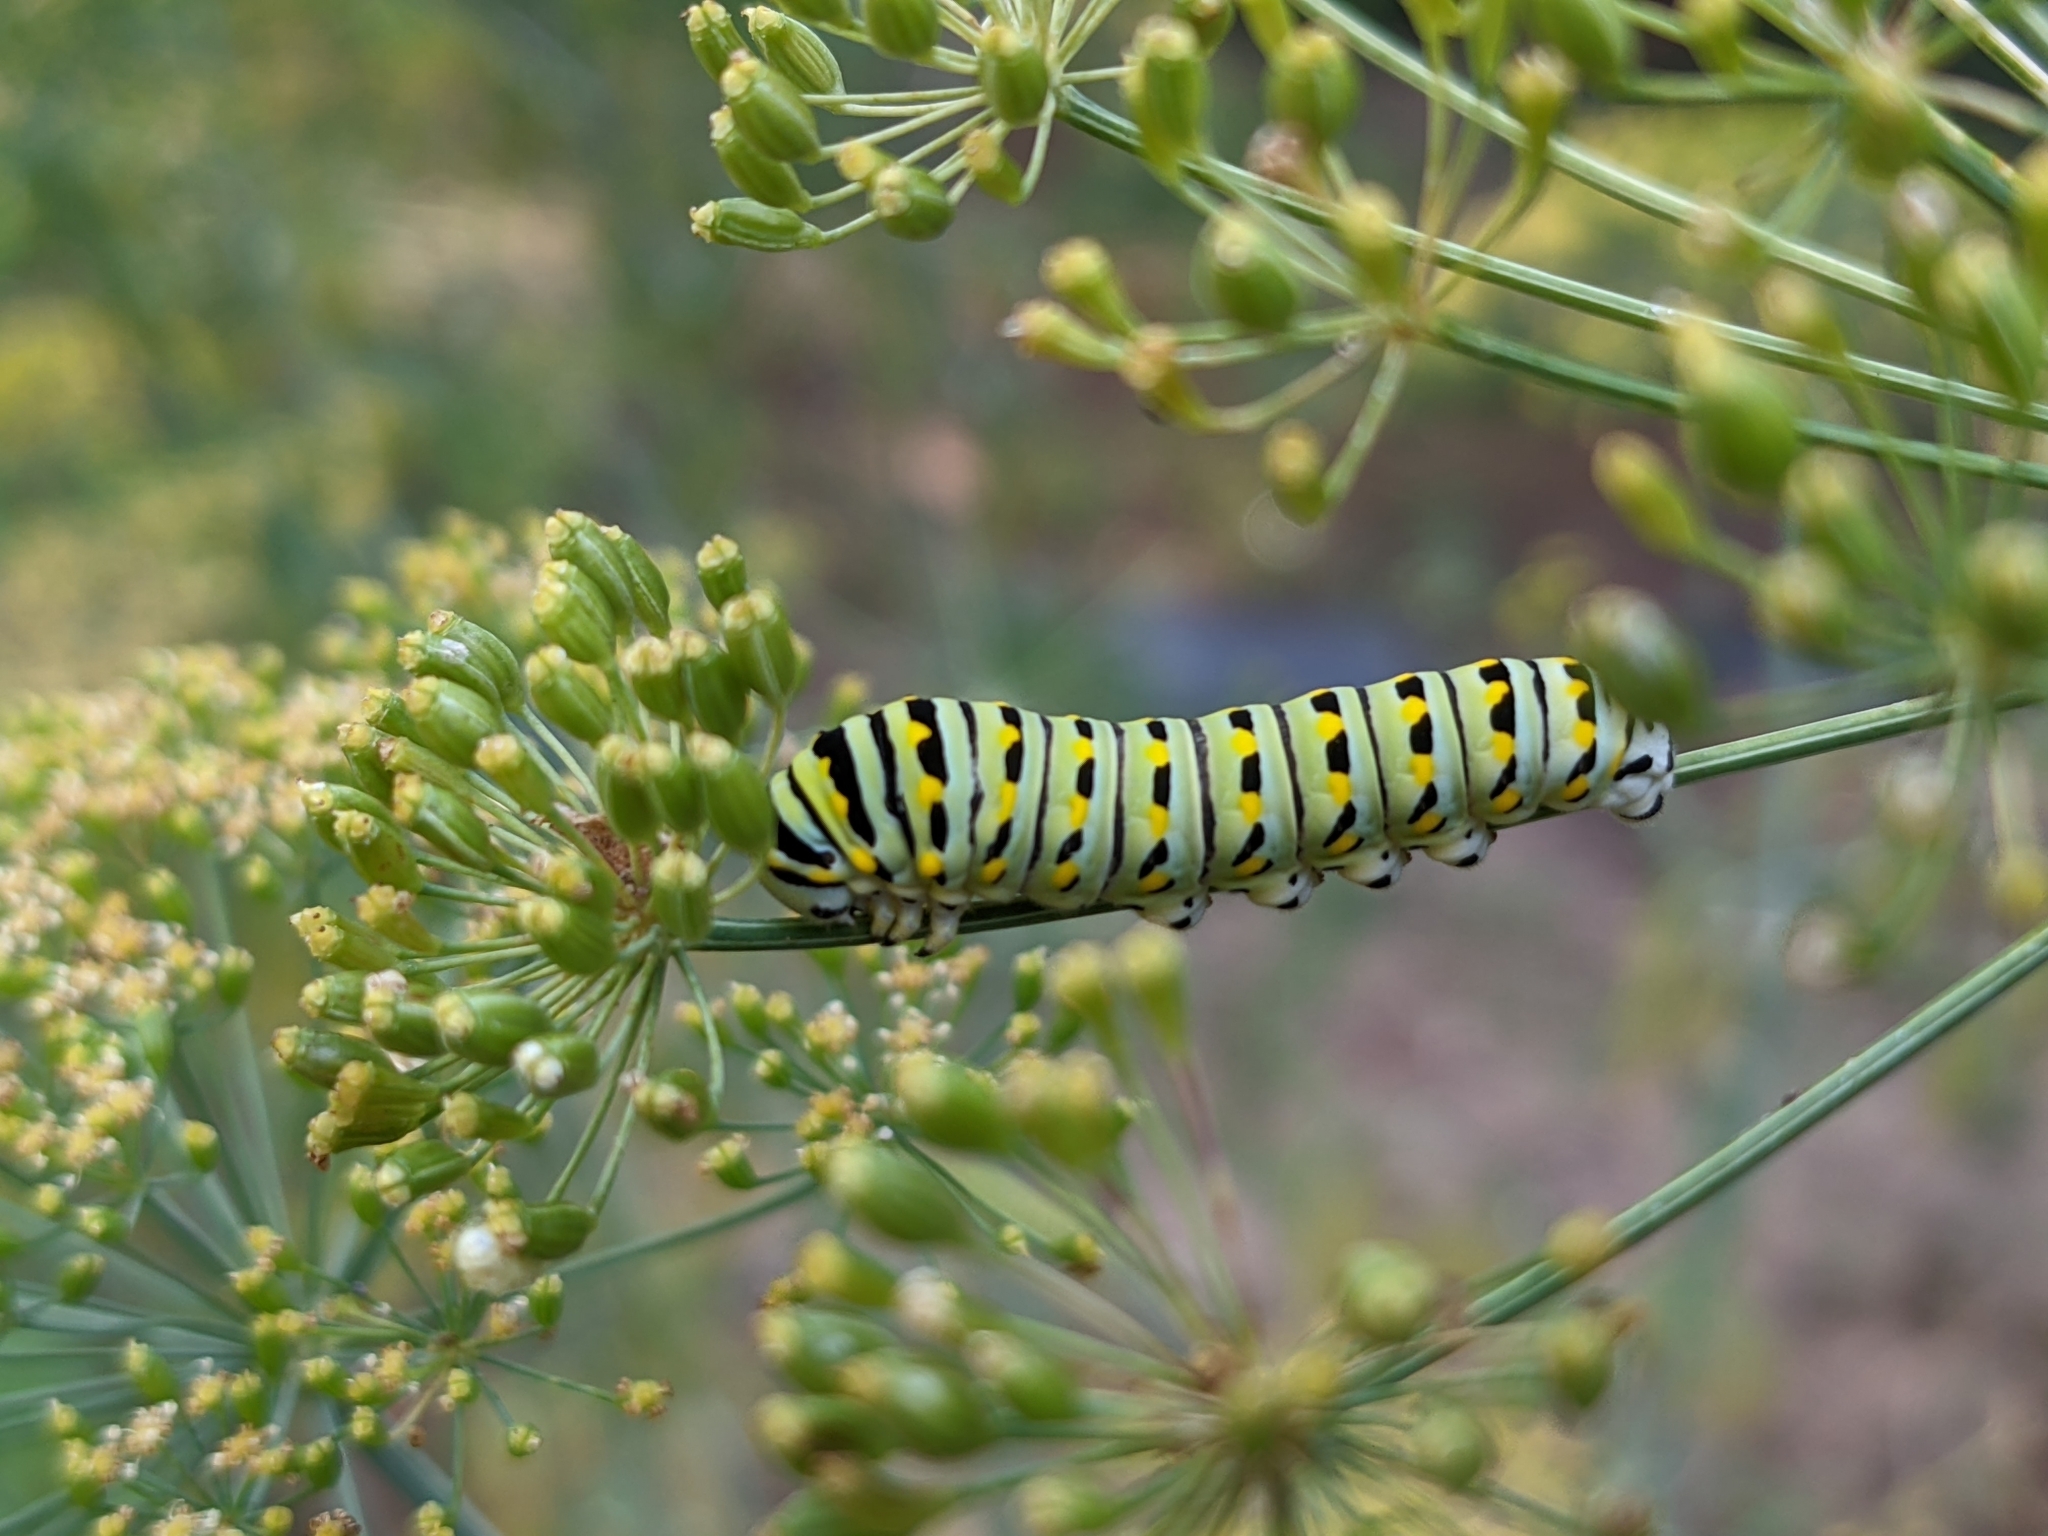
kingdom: Animalia
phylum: Arthropoda
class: Insecta
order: Lepidoptera
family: Papilionidae
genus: Papilio
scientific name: Papilio polyxenes
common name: Black swallowtail
